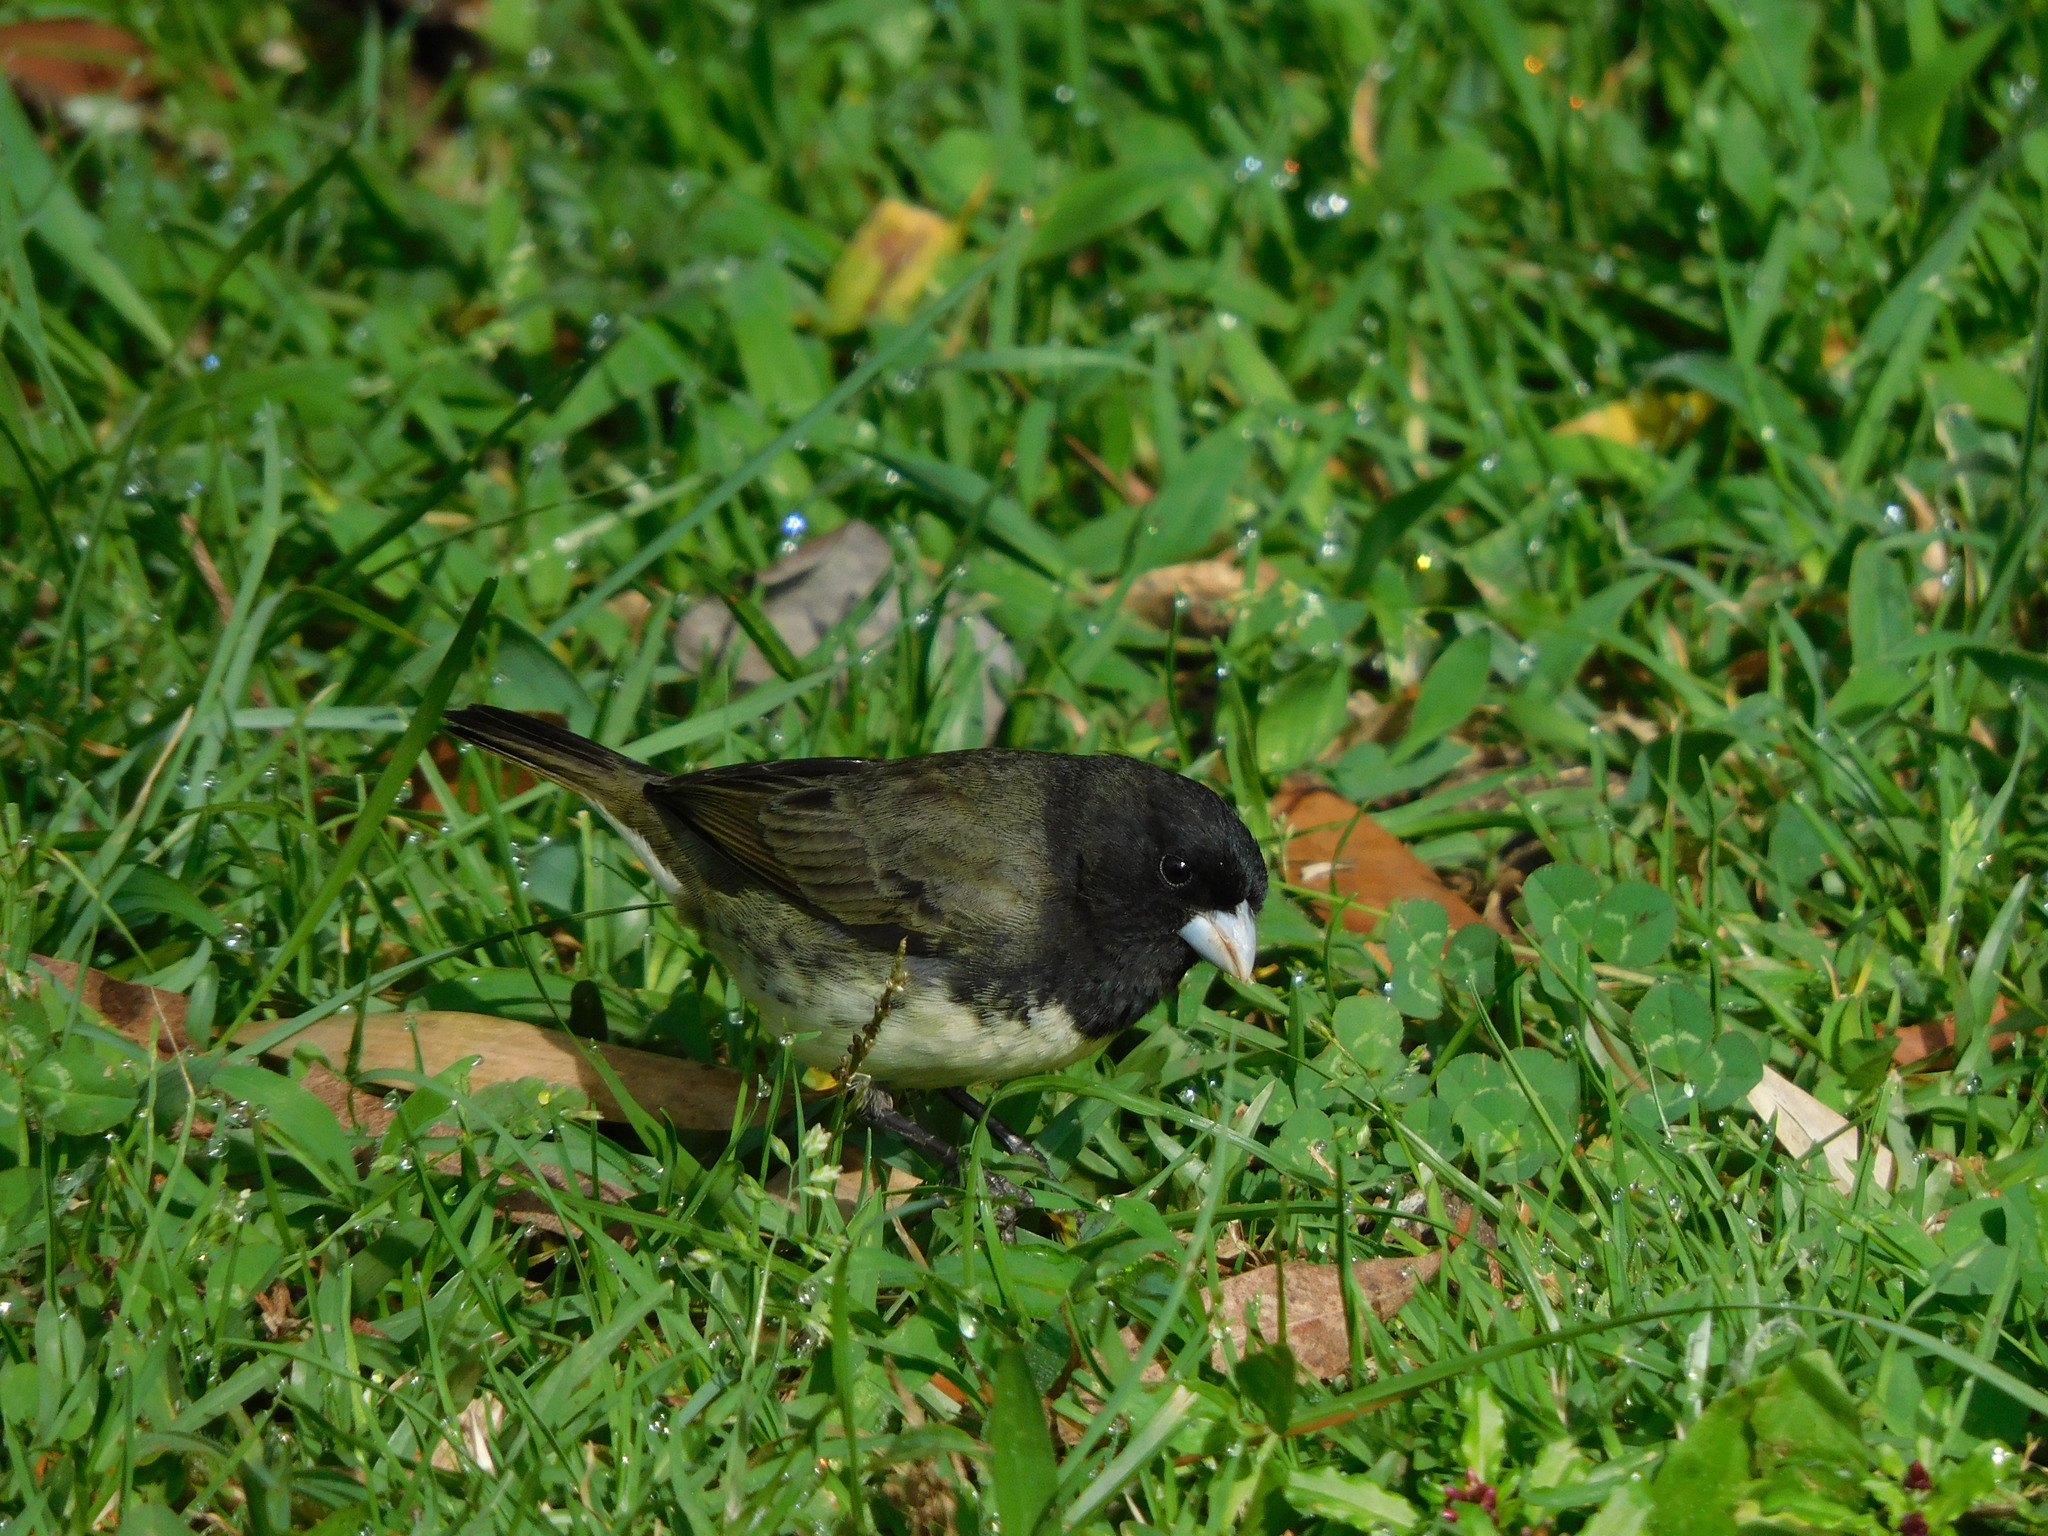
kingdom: Animalia
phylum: Chordata
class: Aves
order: Passeriformes
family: Thraupidae
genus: Sporophila
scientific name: Sporophila nigricollis
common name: Yellow-bellied seedeater
